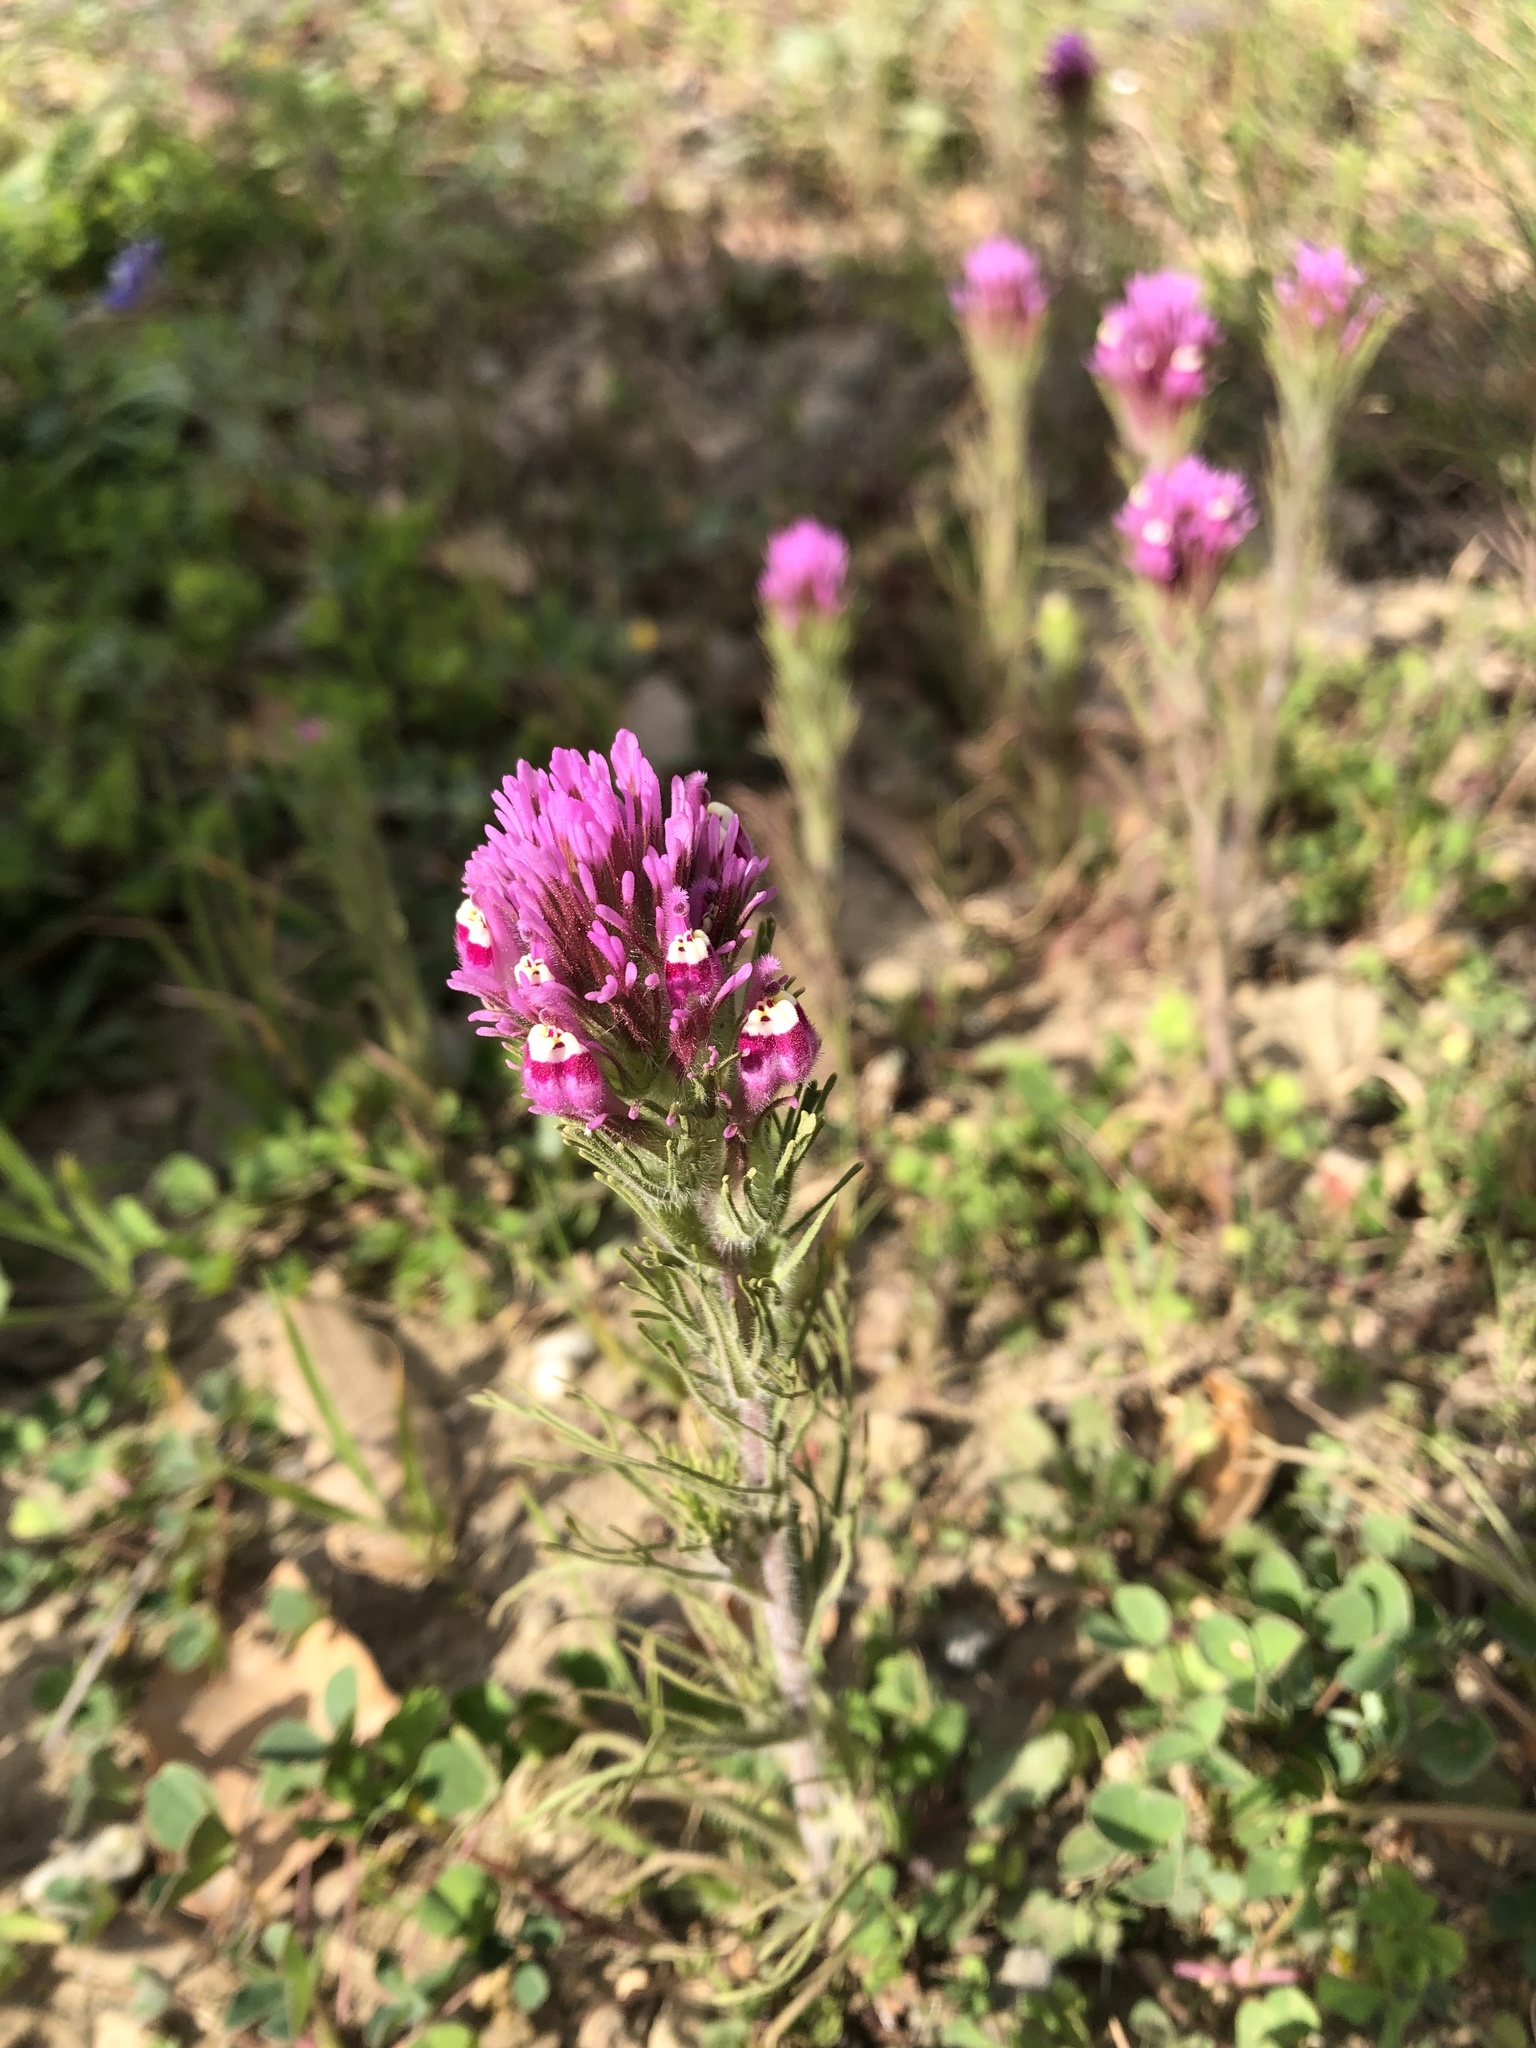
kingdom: Plantae
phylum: Tracheophyta
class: Magnoliopsida
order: Lamiales
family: Orobanchaceae
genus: Castilleja
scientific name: Castilleja exserta
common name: Purple owl-clover
